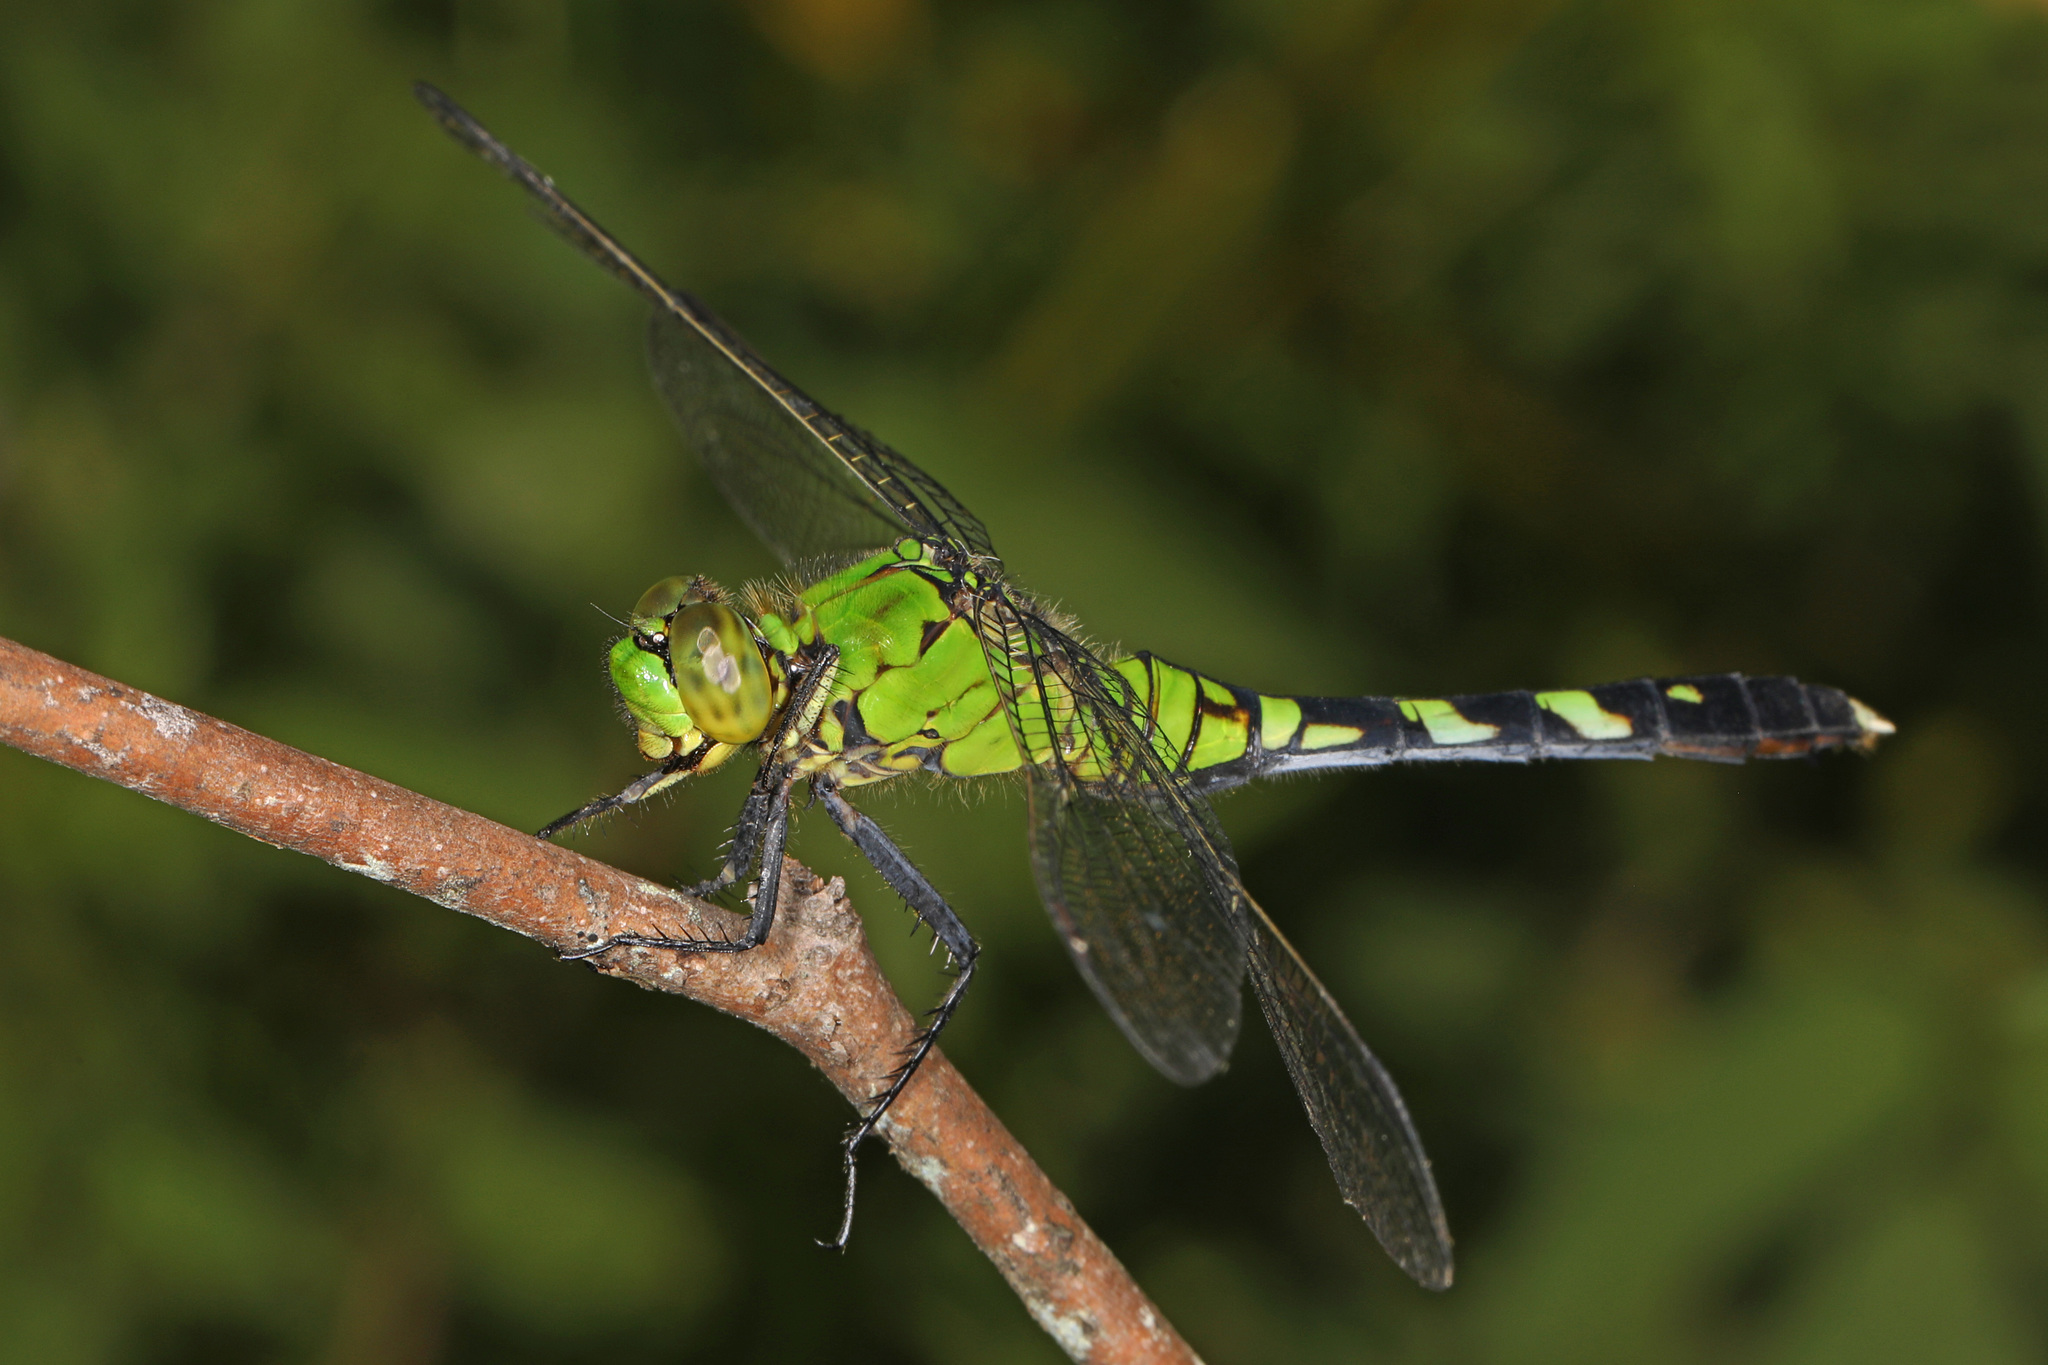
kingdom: Animalia
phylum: Arthropoda
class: Insecta
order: Odonata
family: Libellulidae
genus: Erythemis
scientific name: Erythemis simplicicollis
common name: Eastern pondhawk
